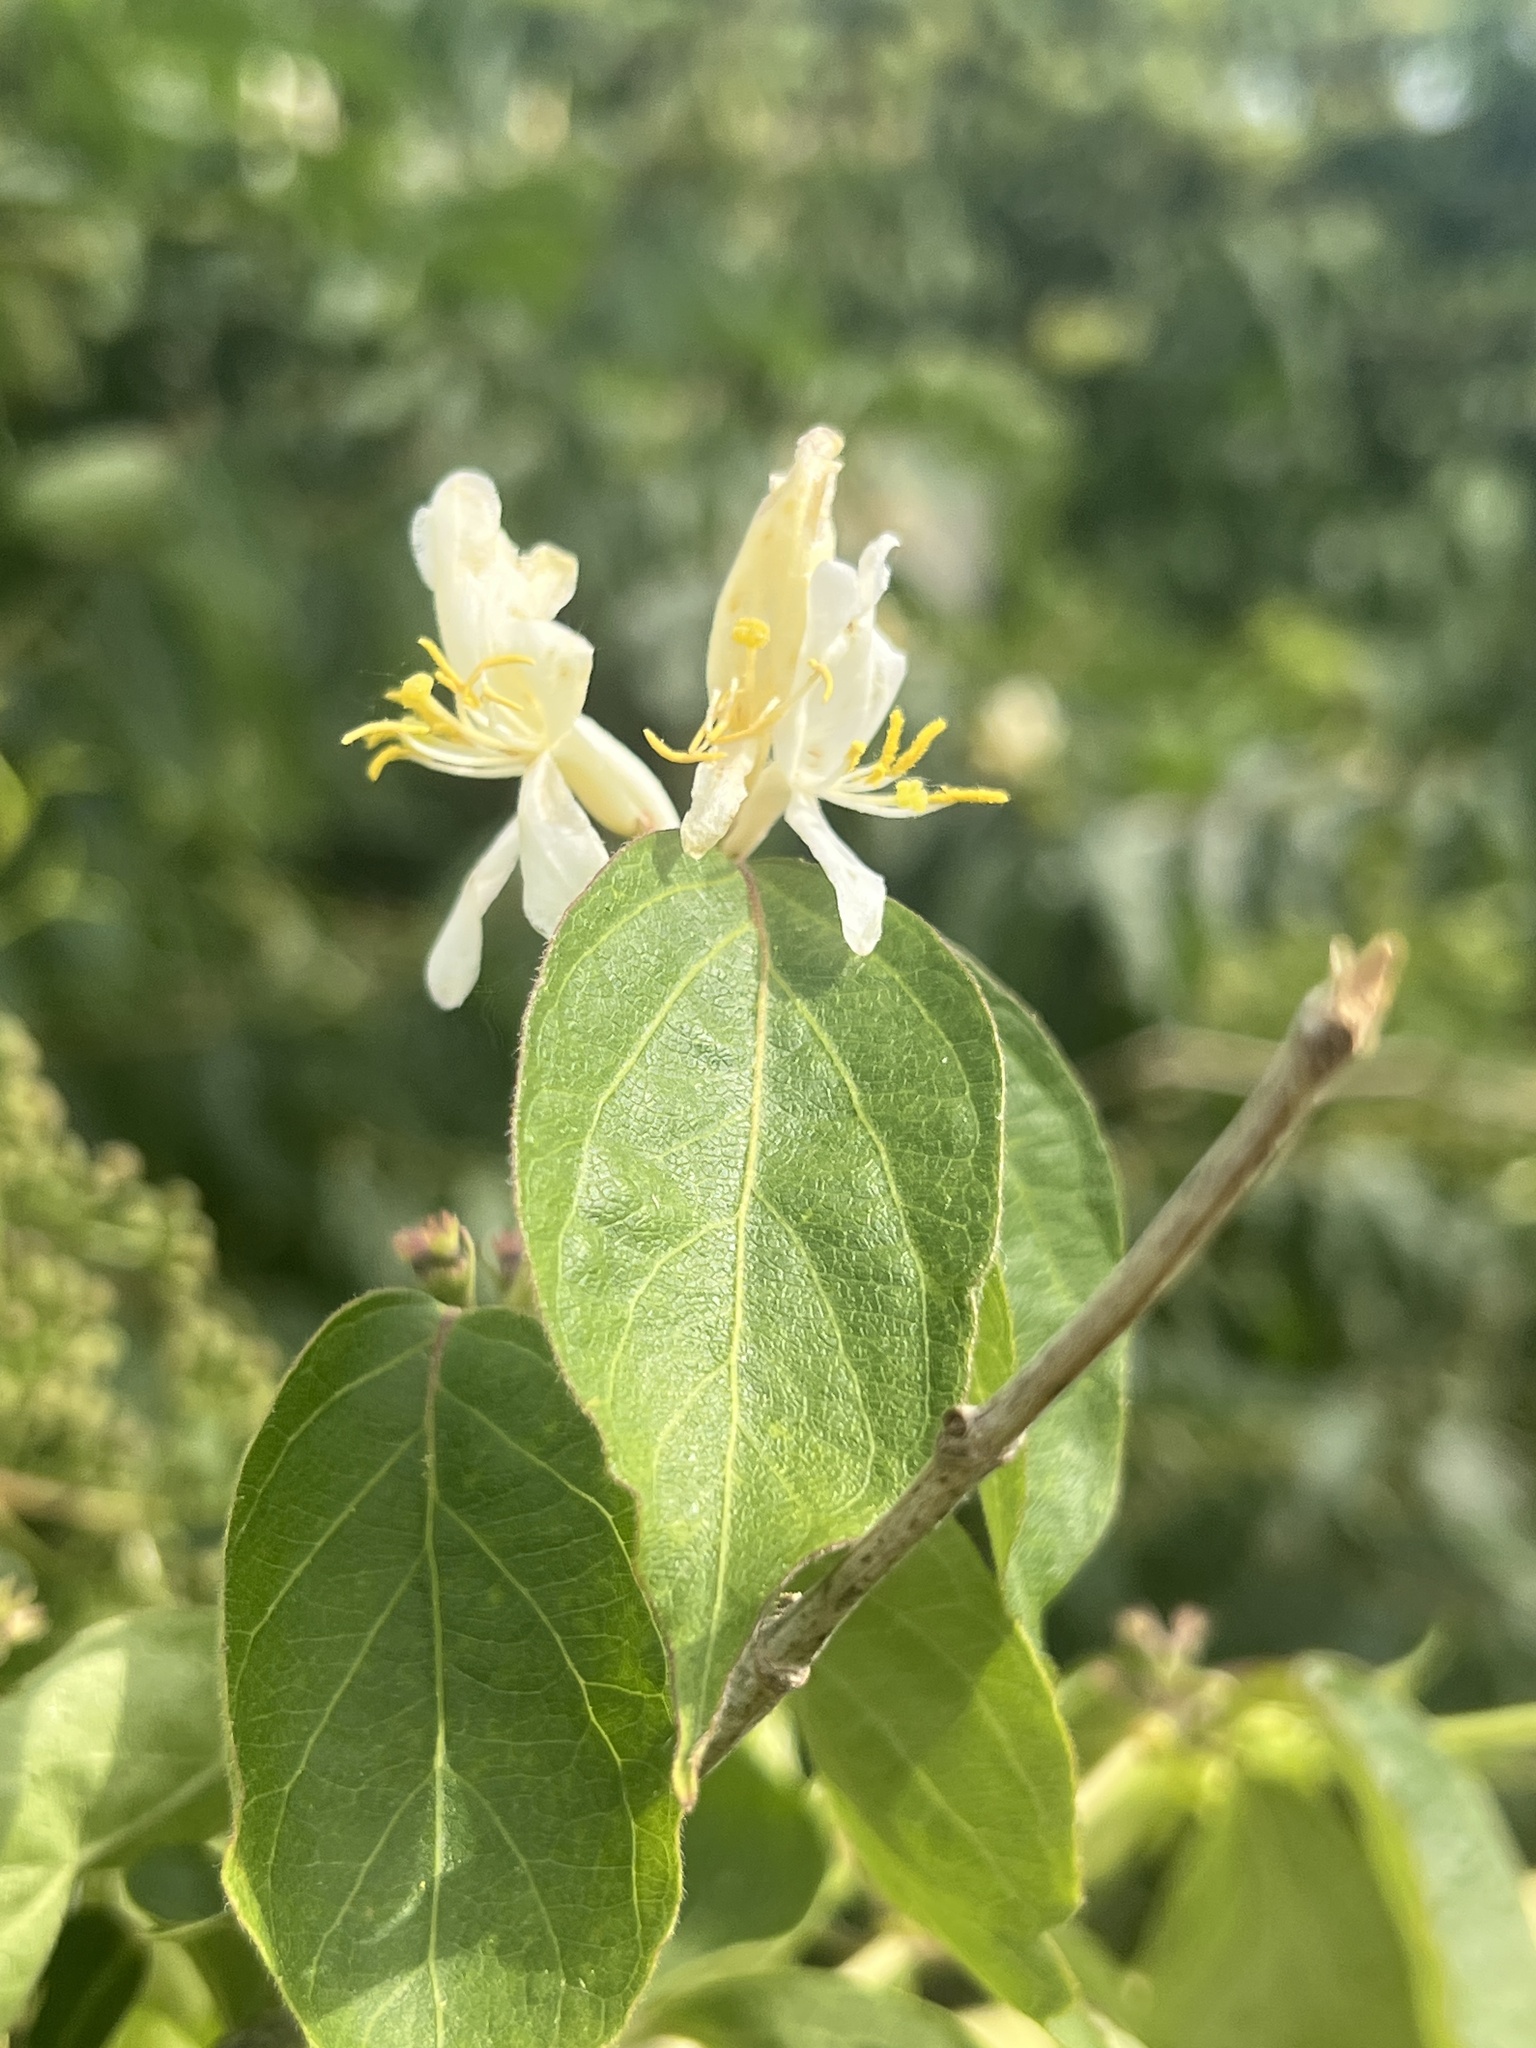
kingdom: Plantae
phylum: Tracheophyta
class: Magnoliopsida
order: Dipsacales
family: Caprifoliaceae
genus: Lonicera
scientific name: Lonicera maackii
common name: Amur honeysuckle
